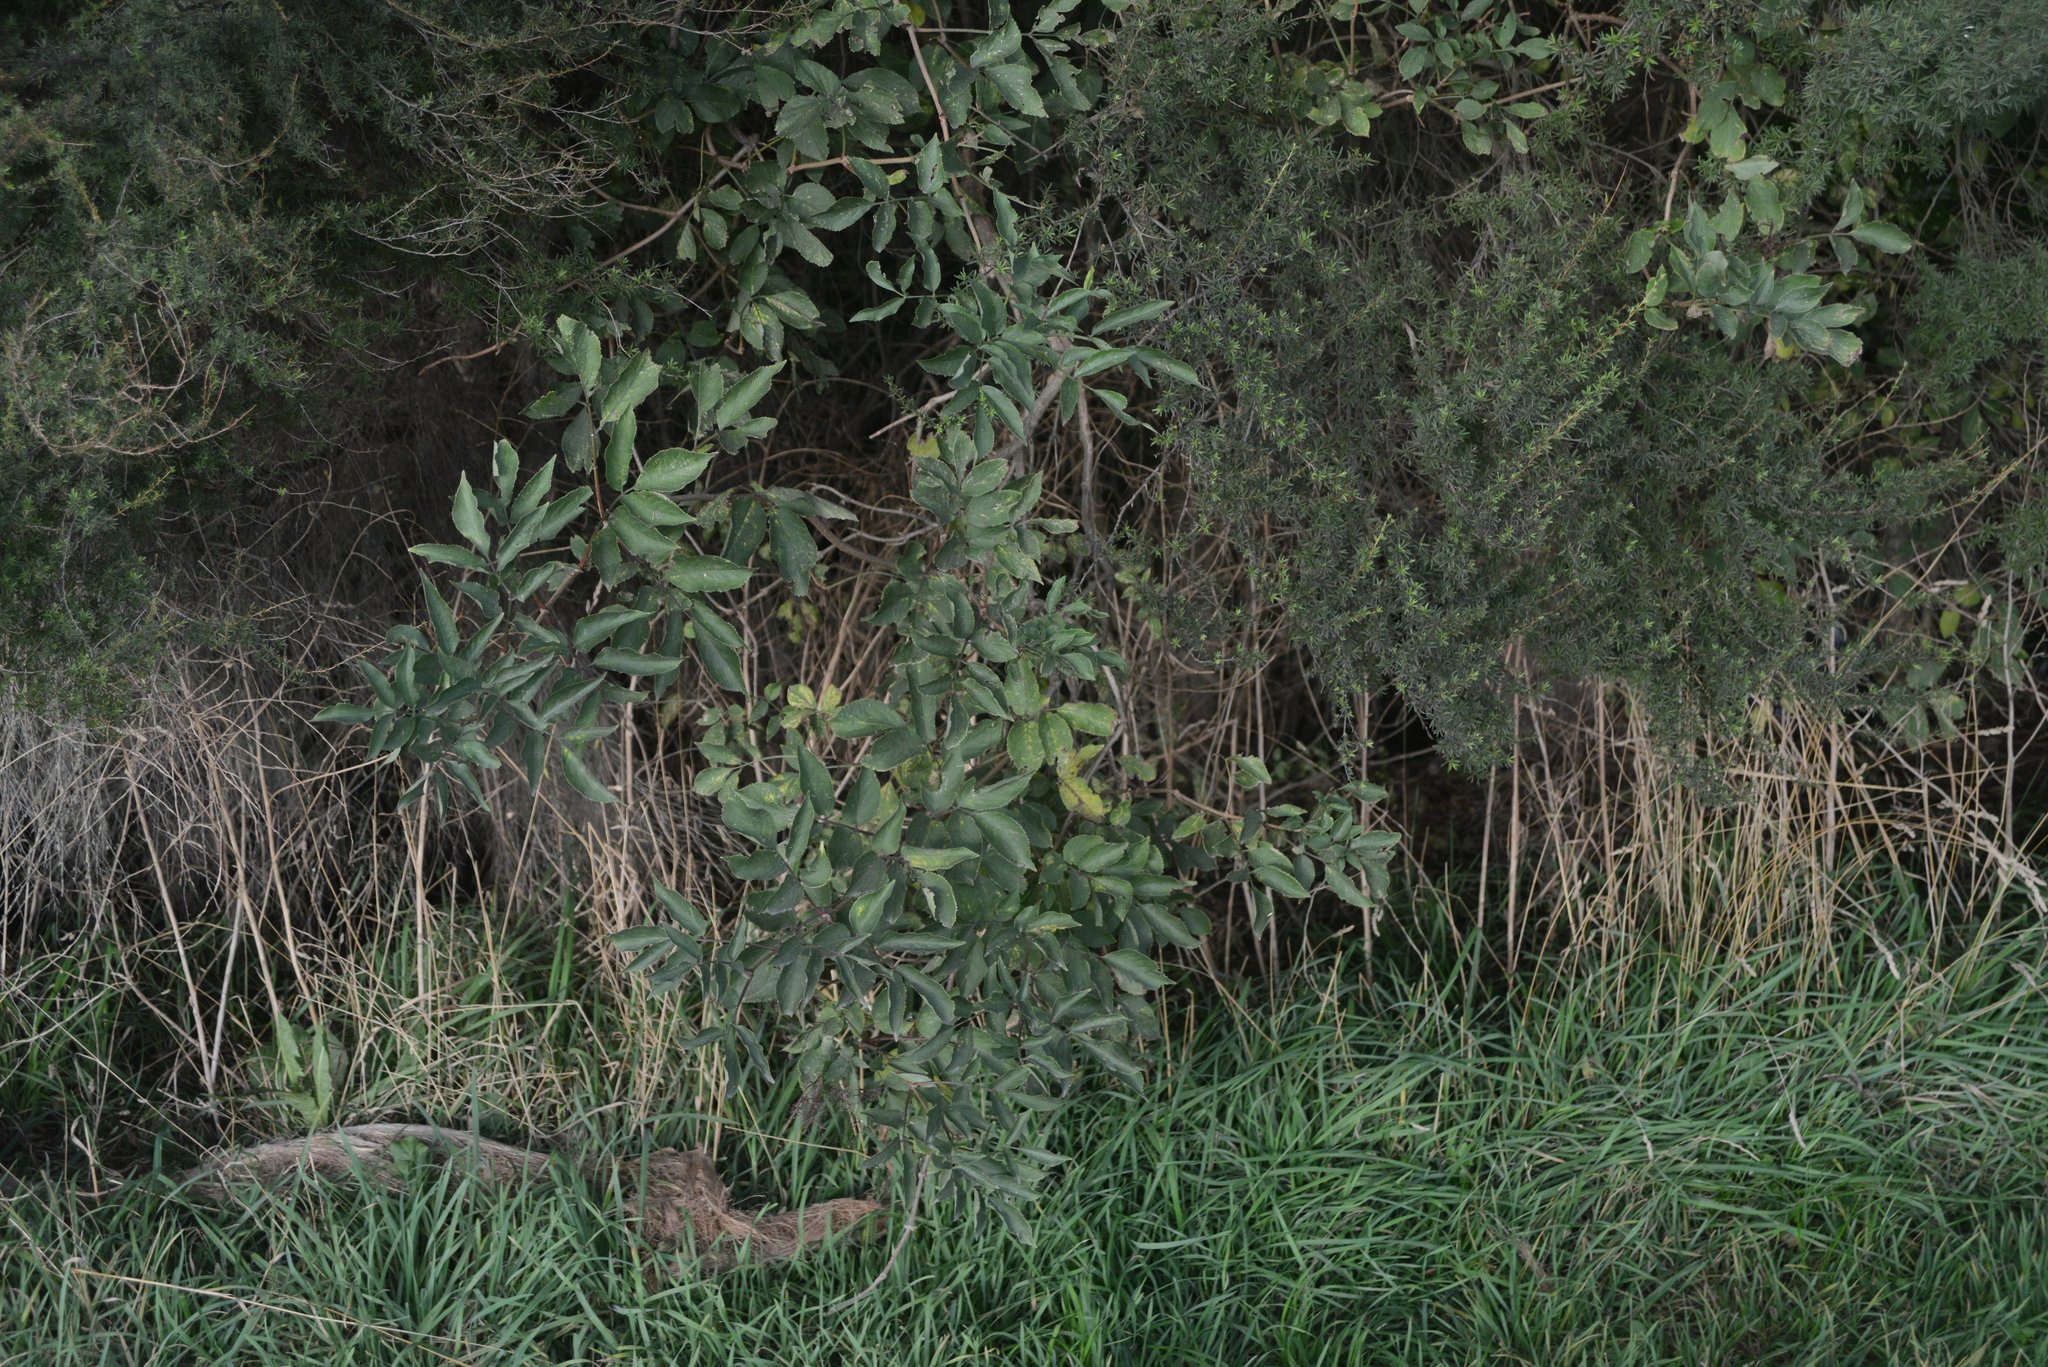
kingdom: Plantae
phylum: Tracheophyta
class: Magnoliopsida
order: Dipsacales
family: Viburnaceae
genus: Sambucus
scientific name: Sambucus nigra
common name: Elder
